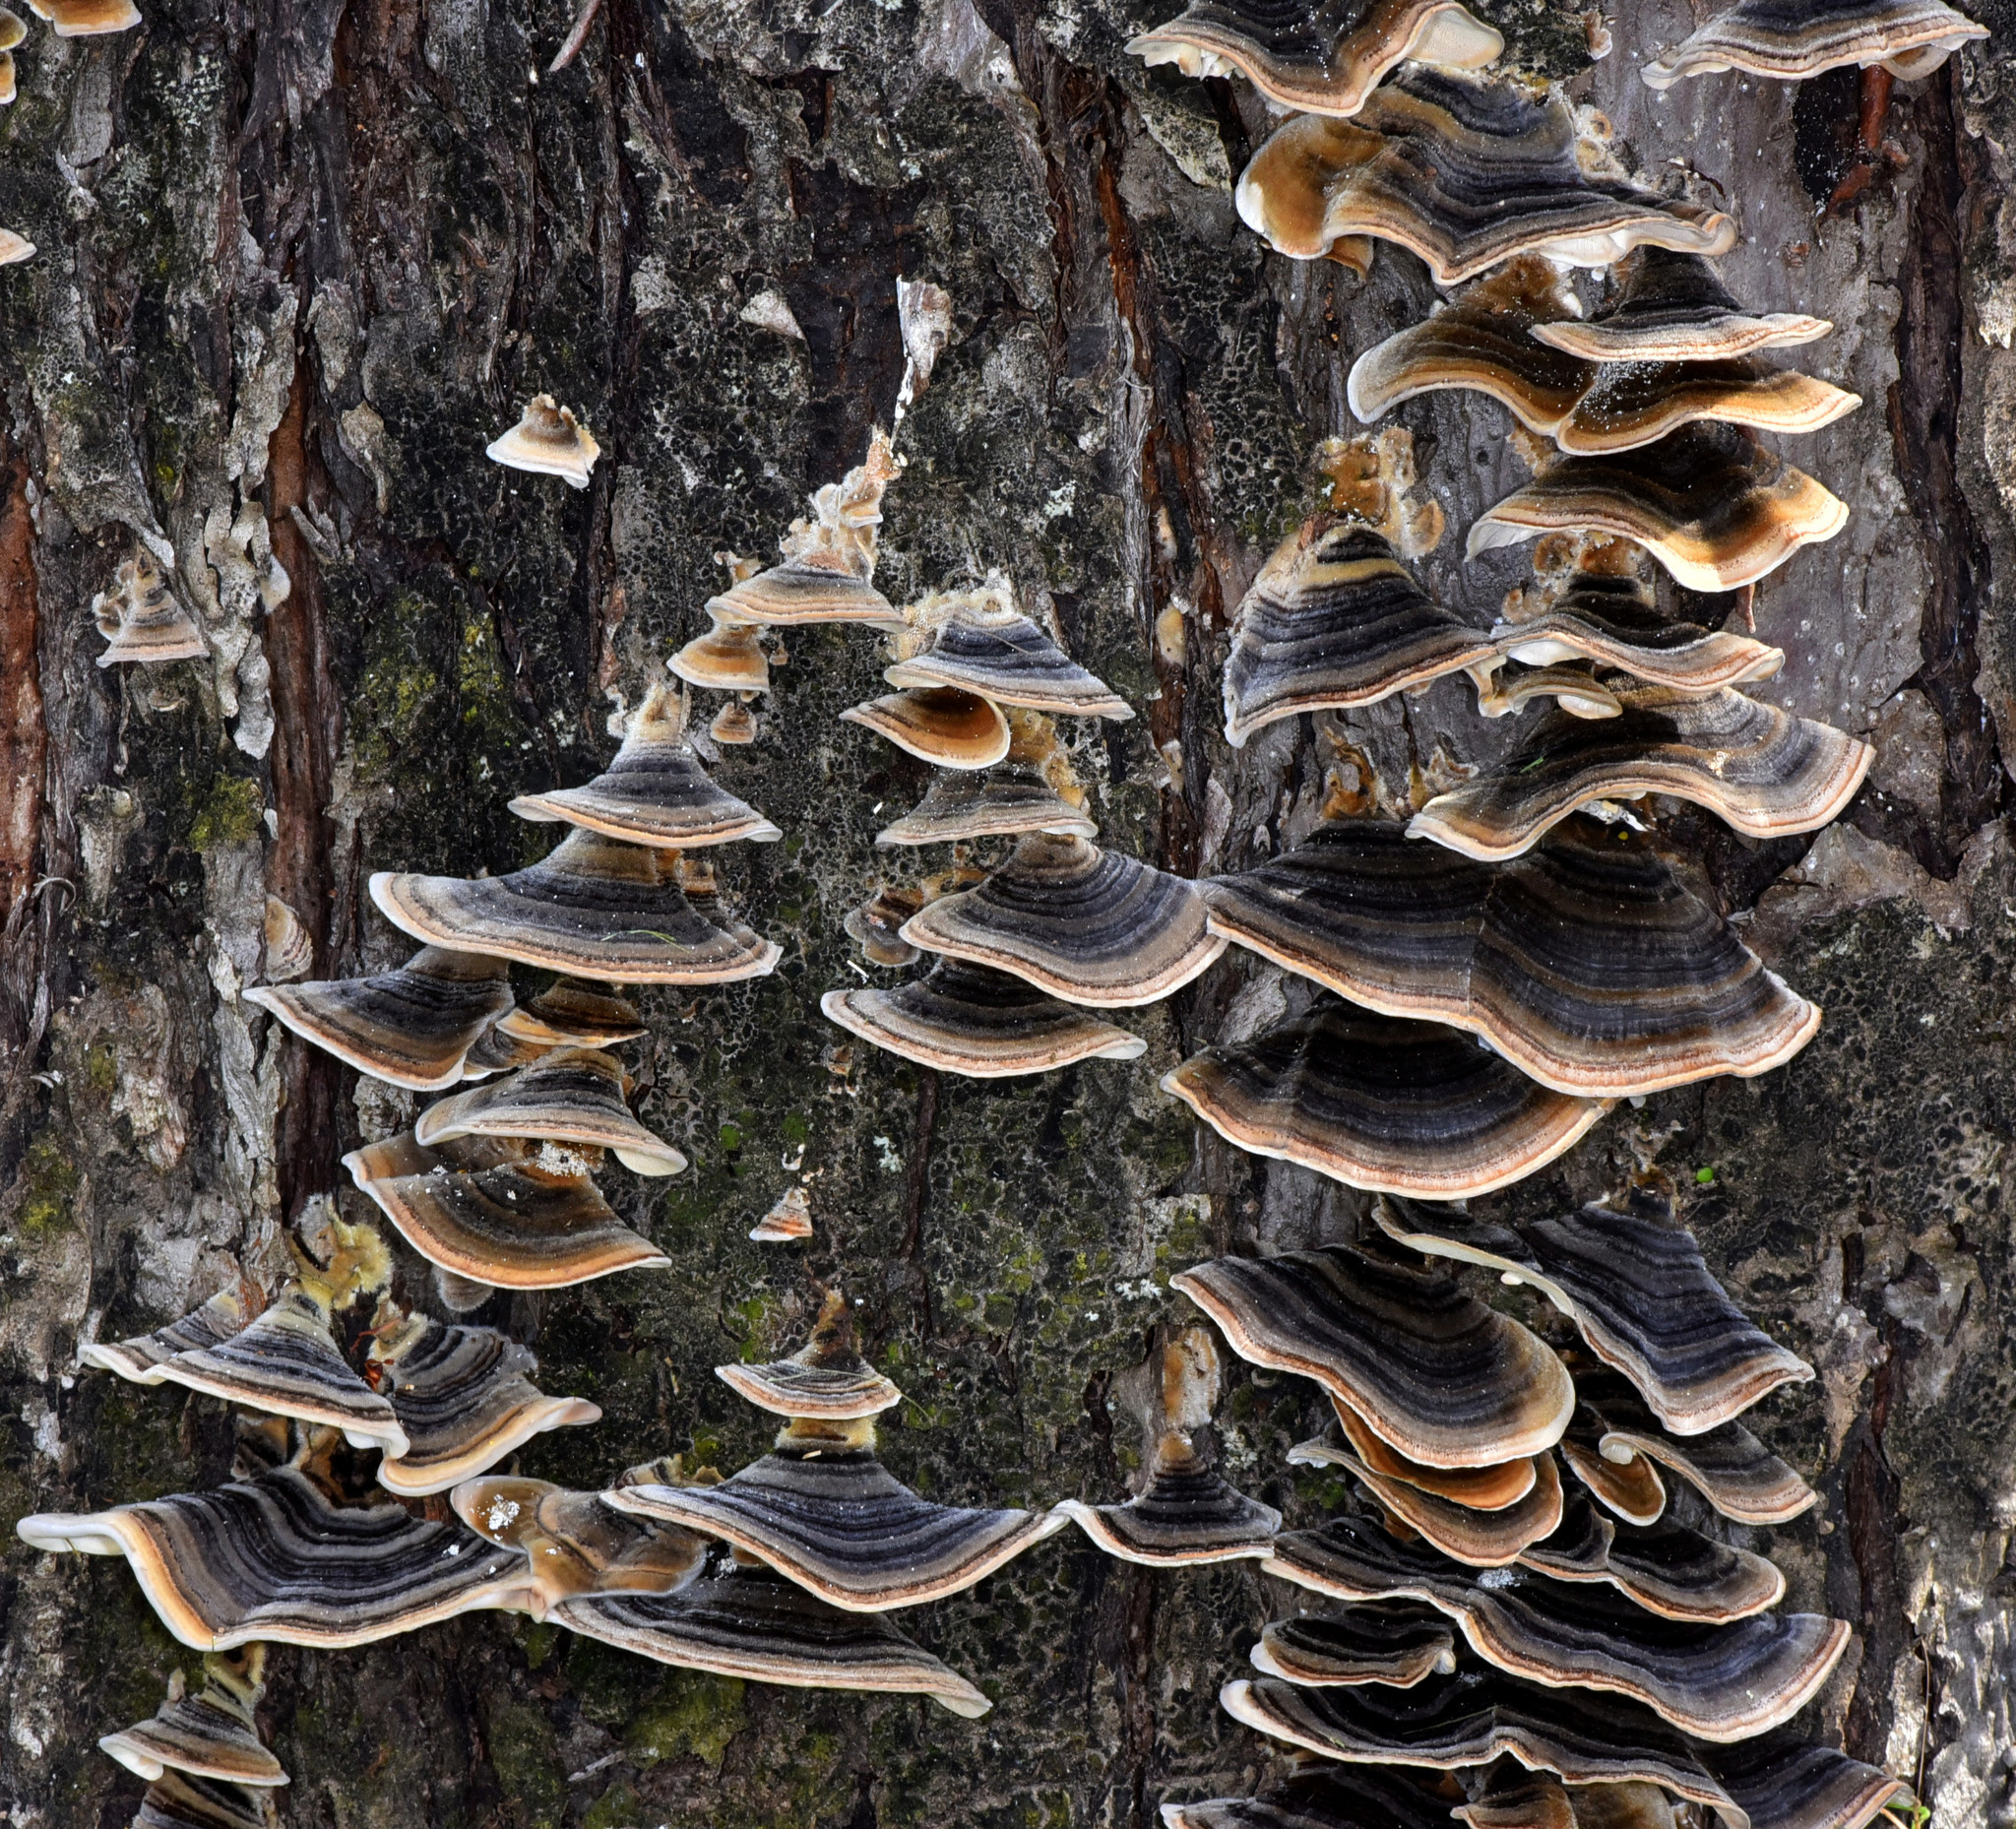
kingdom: Fungi
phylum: Basidiomycota
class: Agaricomycetes
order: Polyporales
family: Polyporaceae
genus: Trametes
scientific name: Trametes versicolor
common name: Turkeytail
